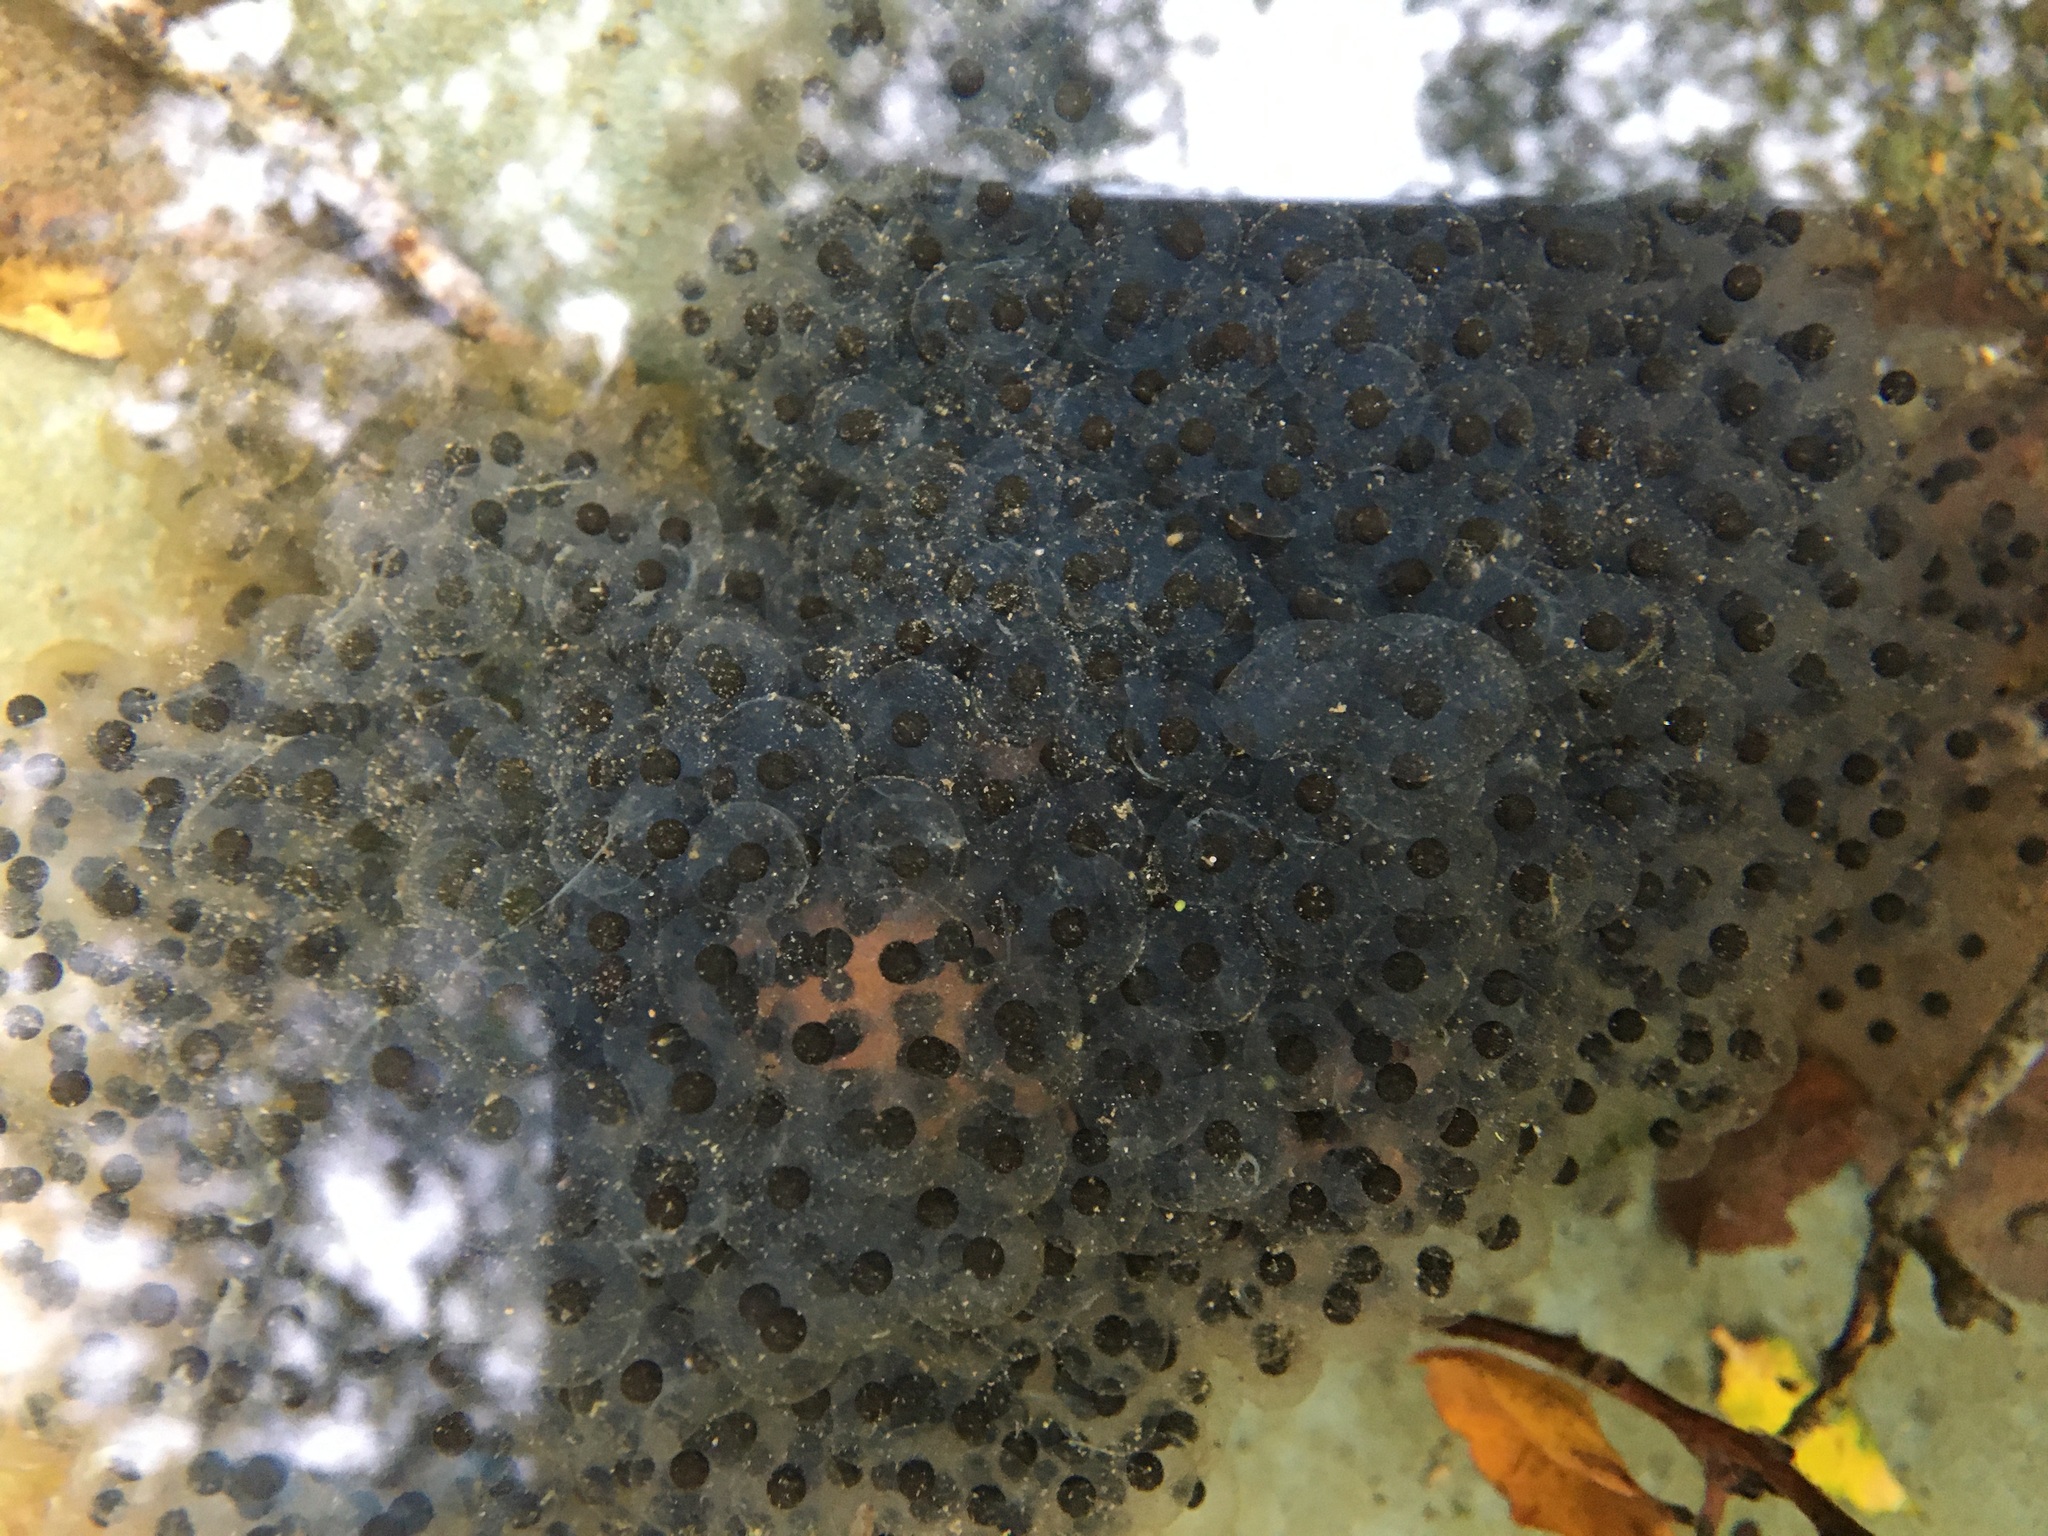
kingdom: Animalia
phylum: Chordata
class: Amphibia
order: Anura
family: Ranidae
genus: Rana
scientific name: Rana draytonii
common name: California red-legged frog
